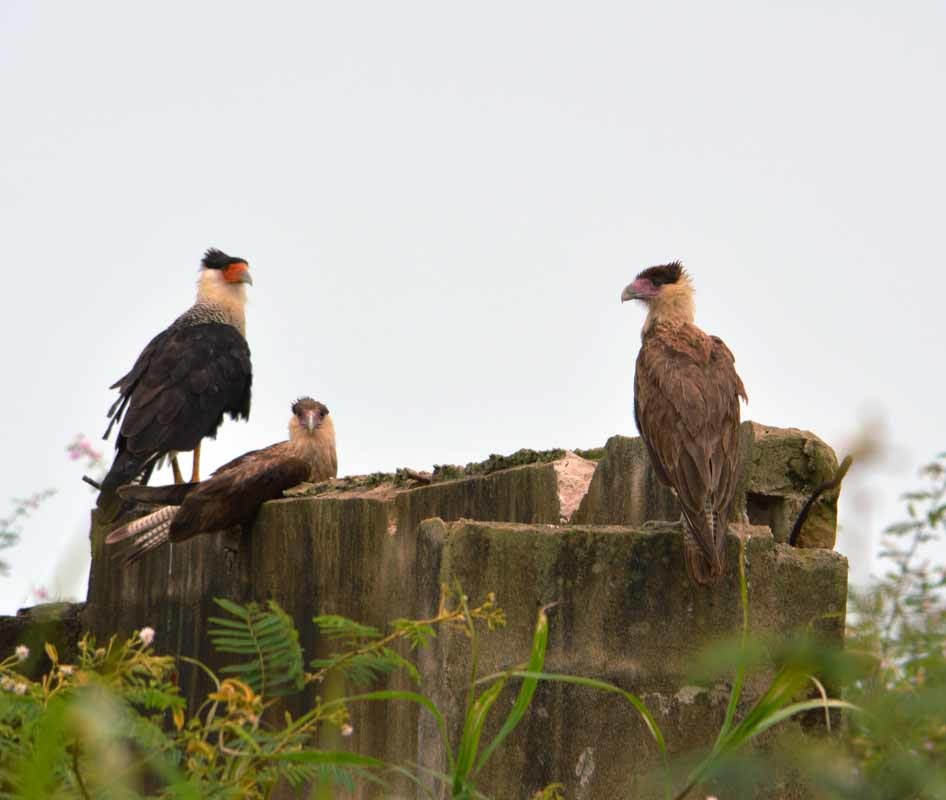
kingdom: Animalia
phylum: Chordata
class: Aves
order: Falconiformes
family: Falconidae
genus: Caracara
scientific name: Caracara plancus
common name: Southern caracara
